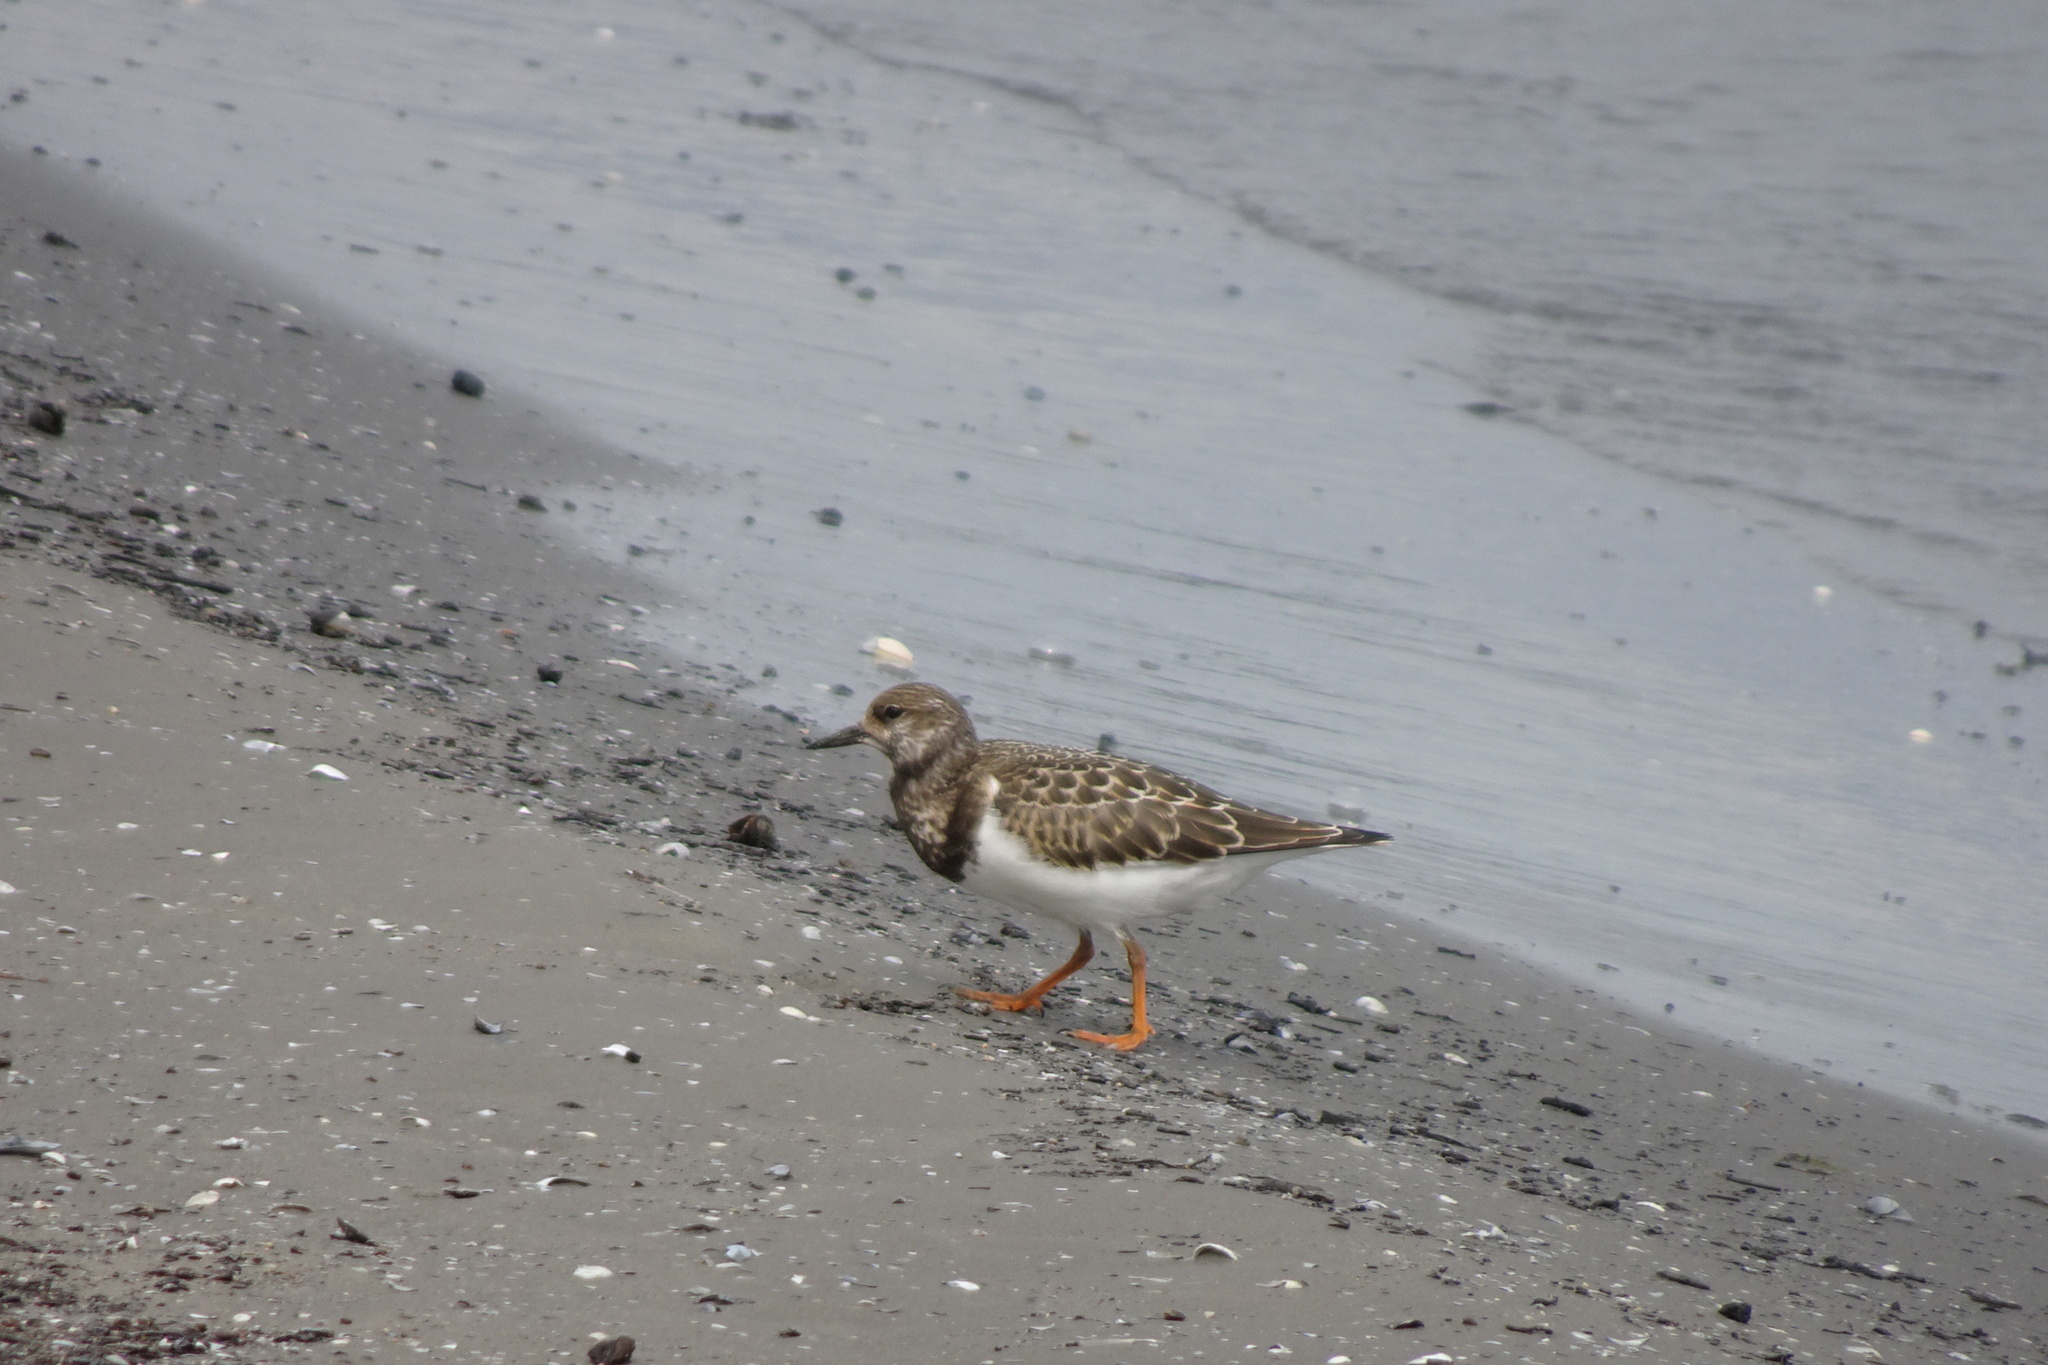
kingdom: Animalia
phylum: Chordata
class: Aves
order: Charadriiformes
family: Scolopacidae
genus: Arenaria
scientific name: Arenaria interpres
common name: Ruddy turnstone
